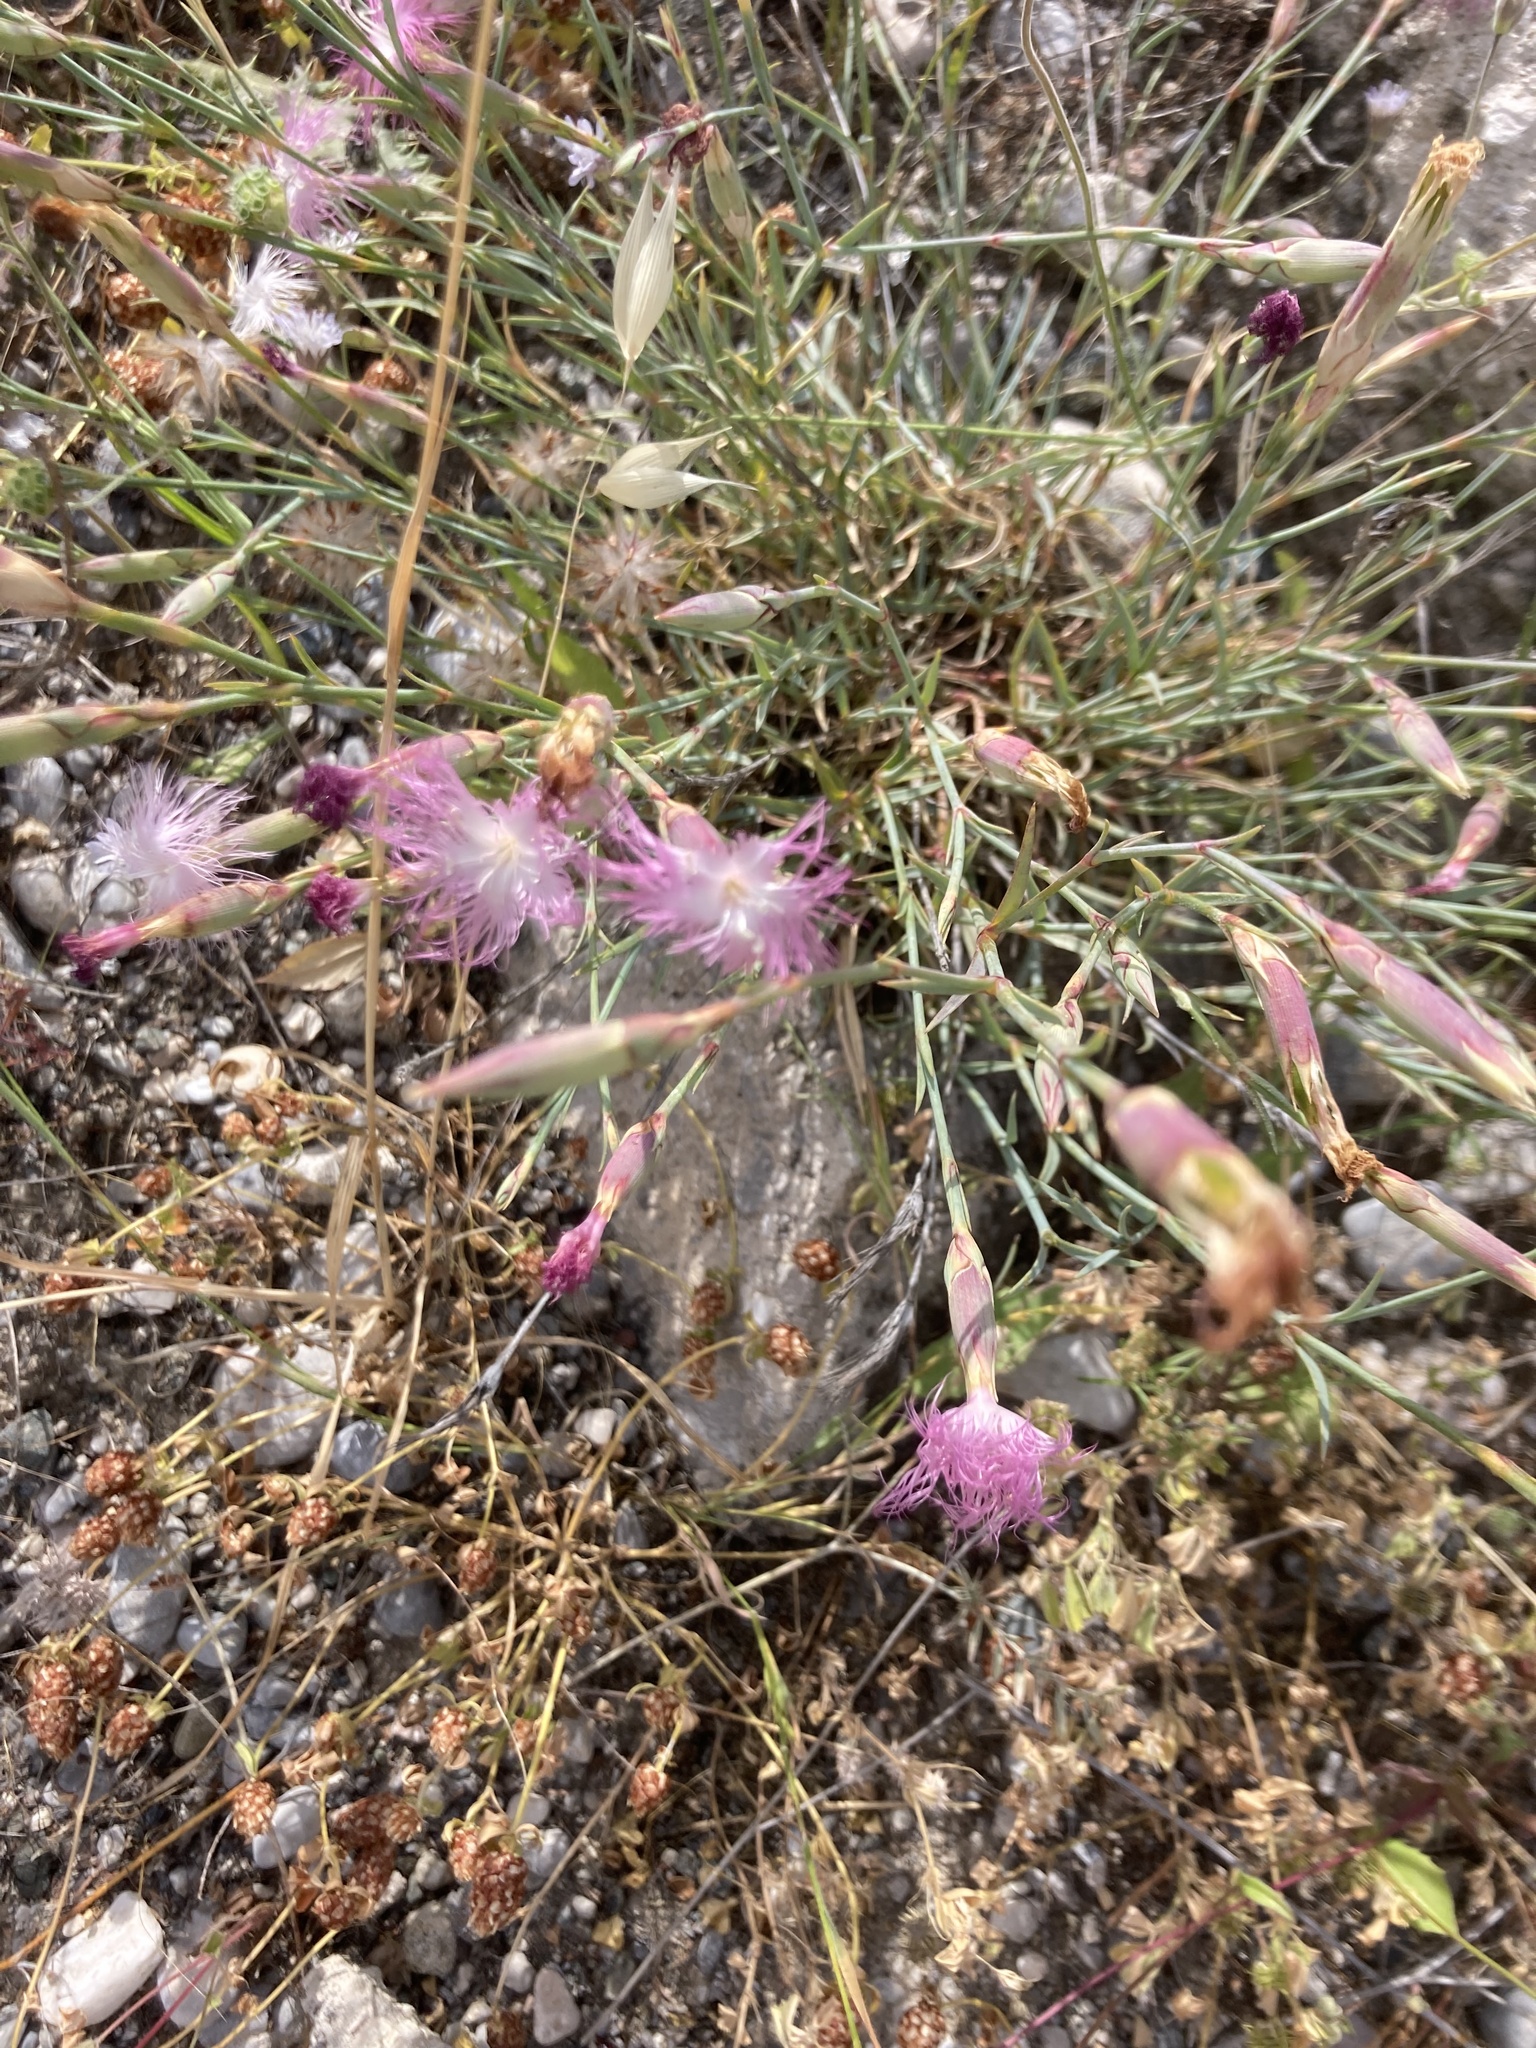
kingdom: Plantae
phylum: Tracheophyta
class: Magnoliopsida
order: Caryophyllales
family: Caryophyllaceae
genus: Dianthus
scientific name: Dianthus crinitus
